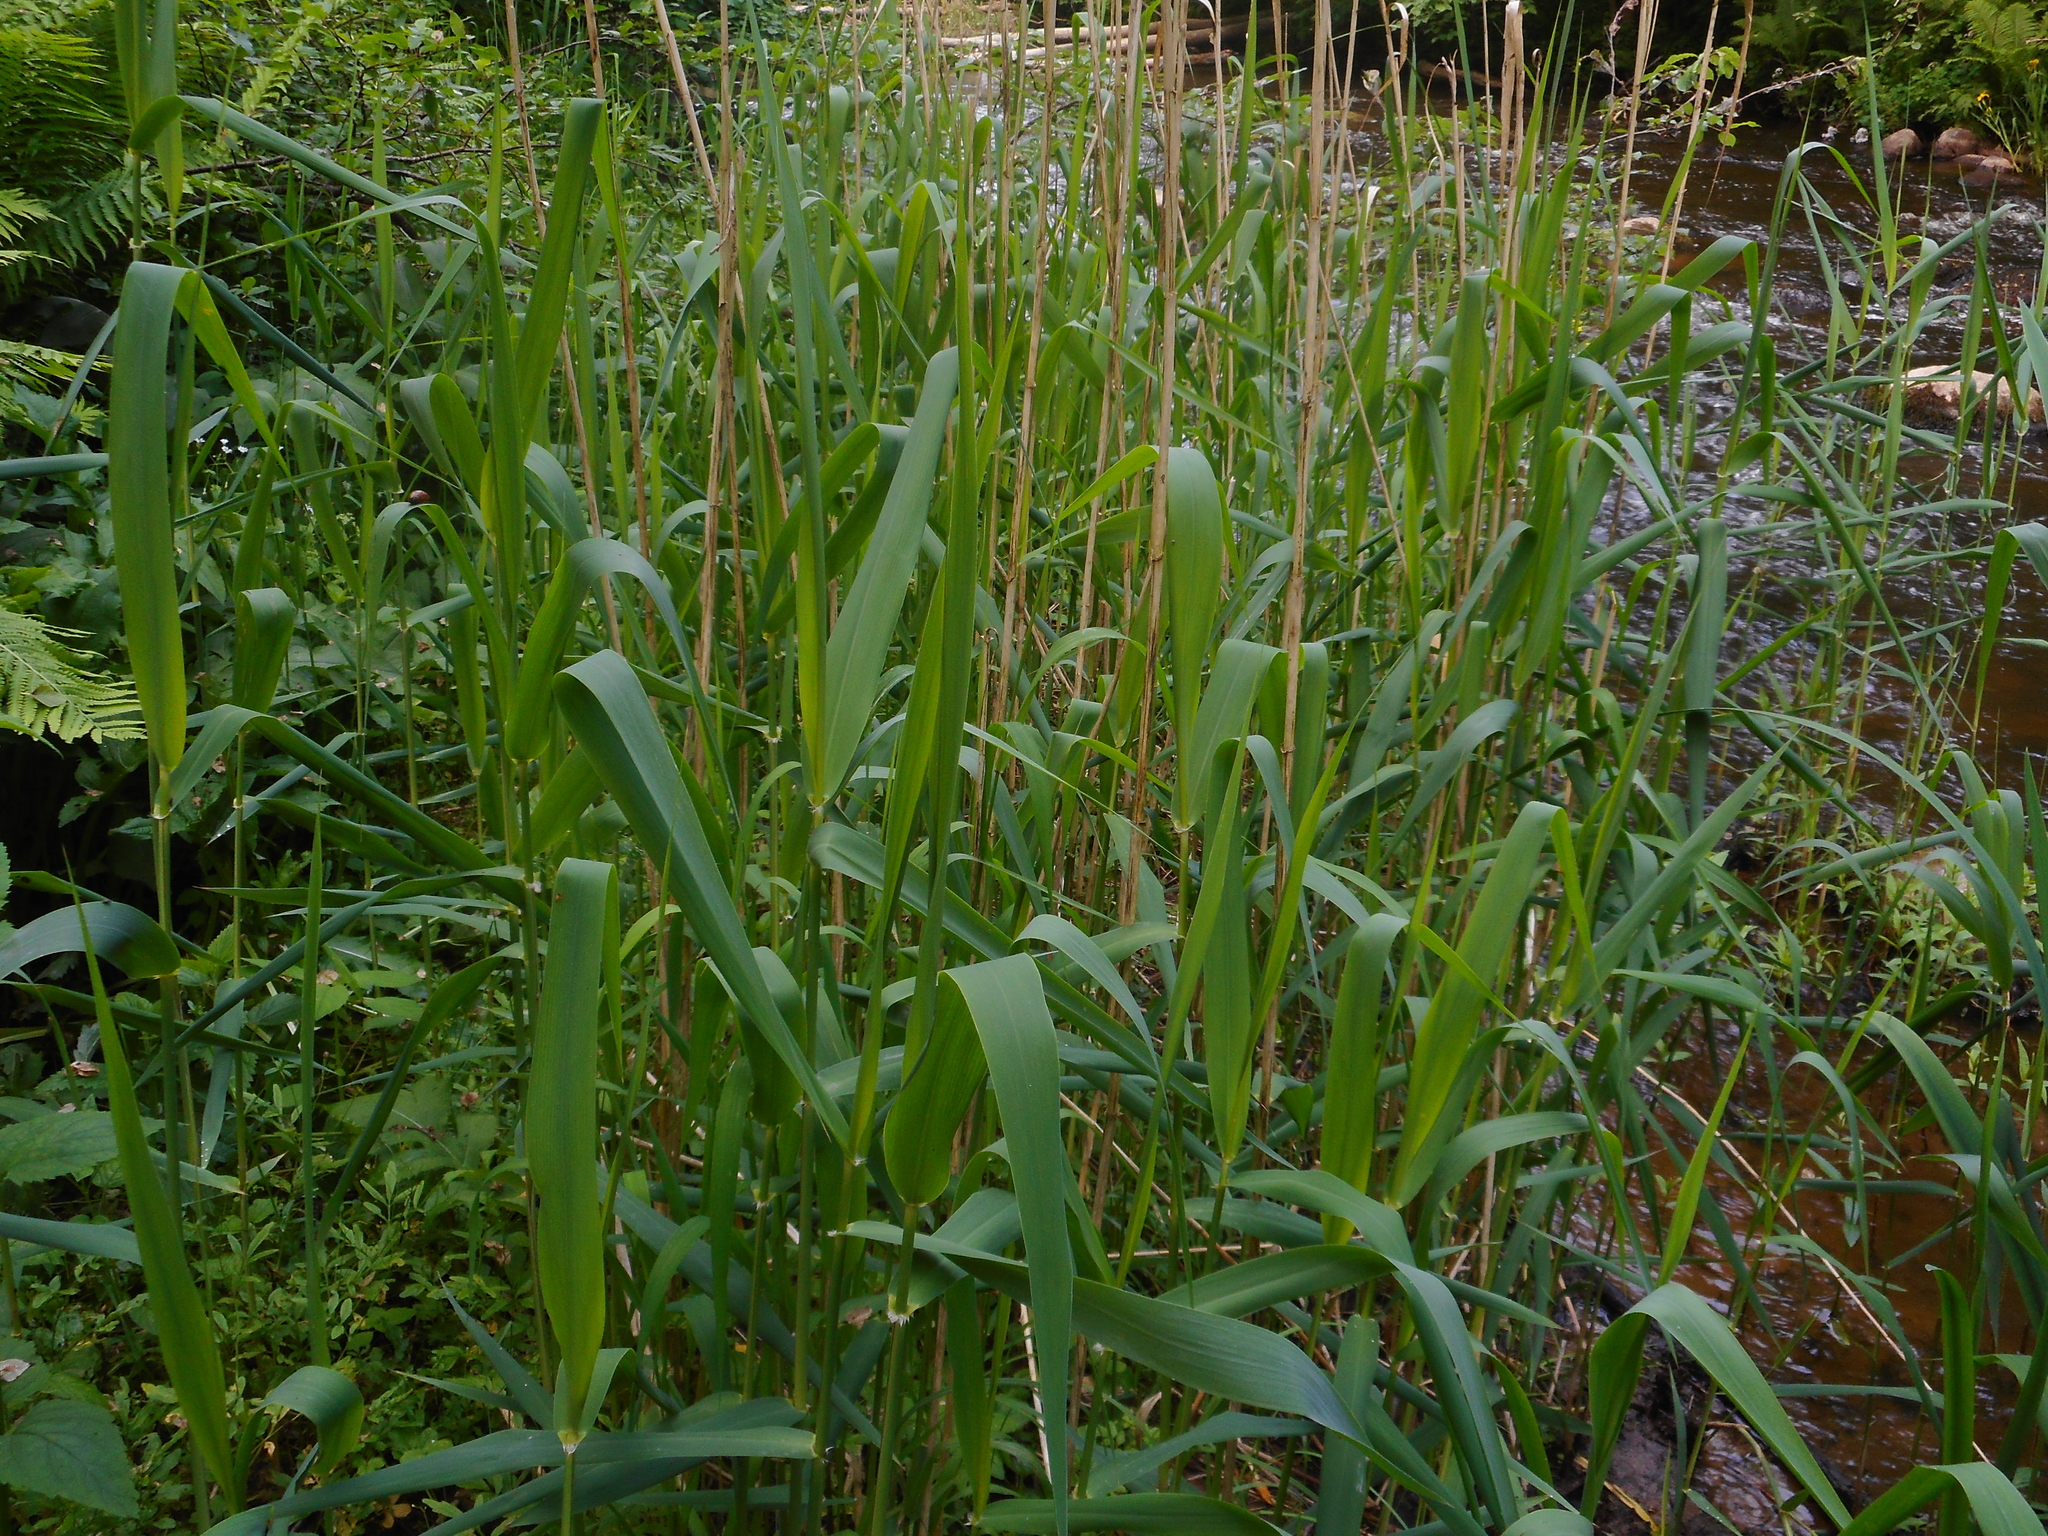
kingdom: Plantae
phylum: Tracheophyta
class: Liliopsida
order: Poales
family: Poaceae
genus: Phragmites
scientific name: Phragmites australis
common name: Common reed
